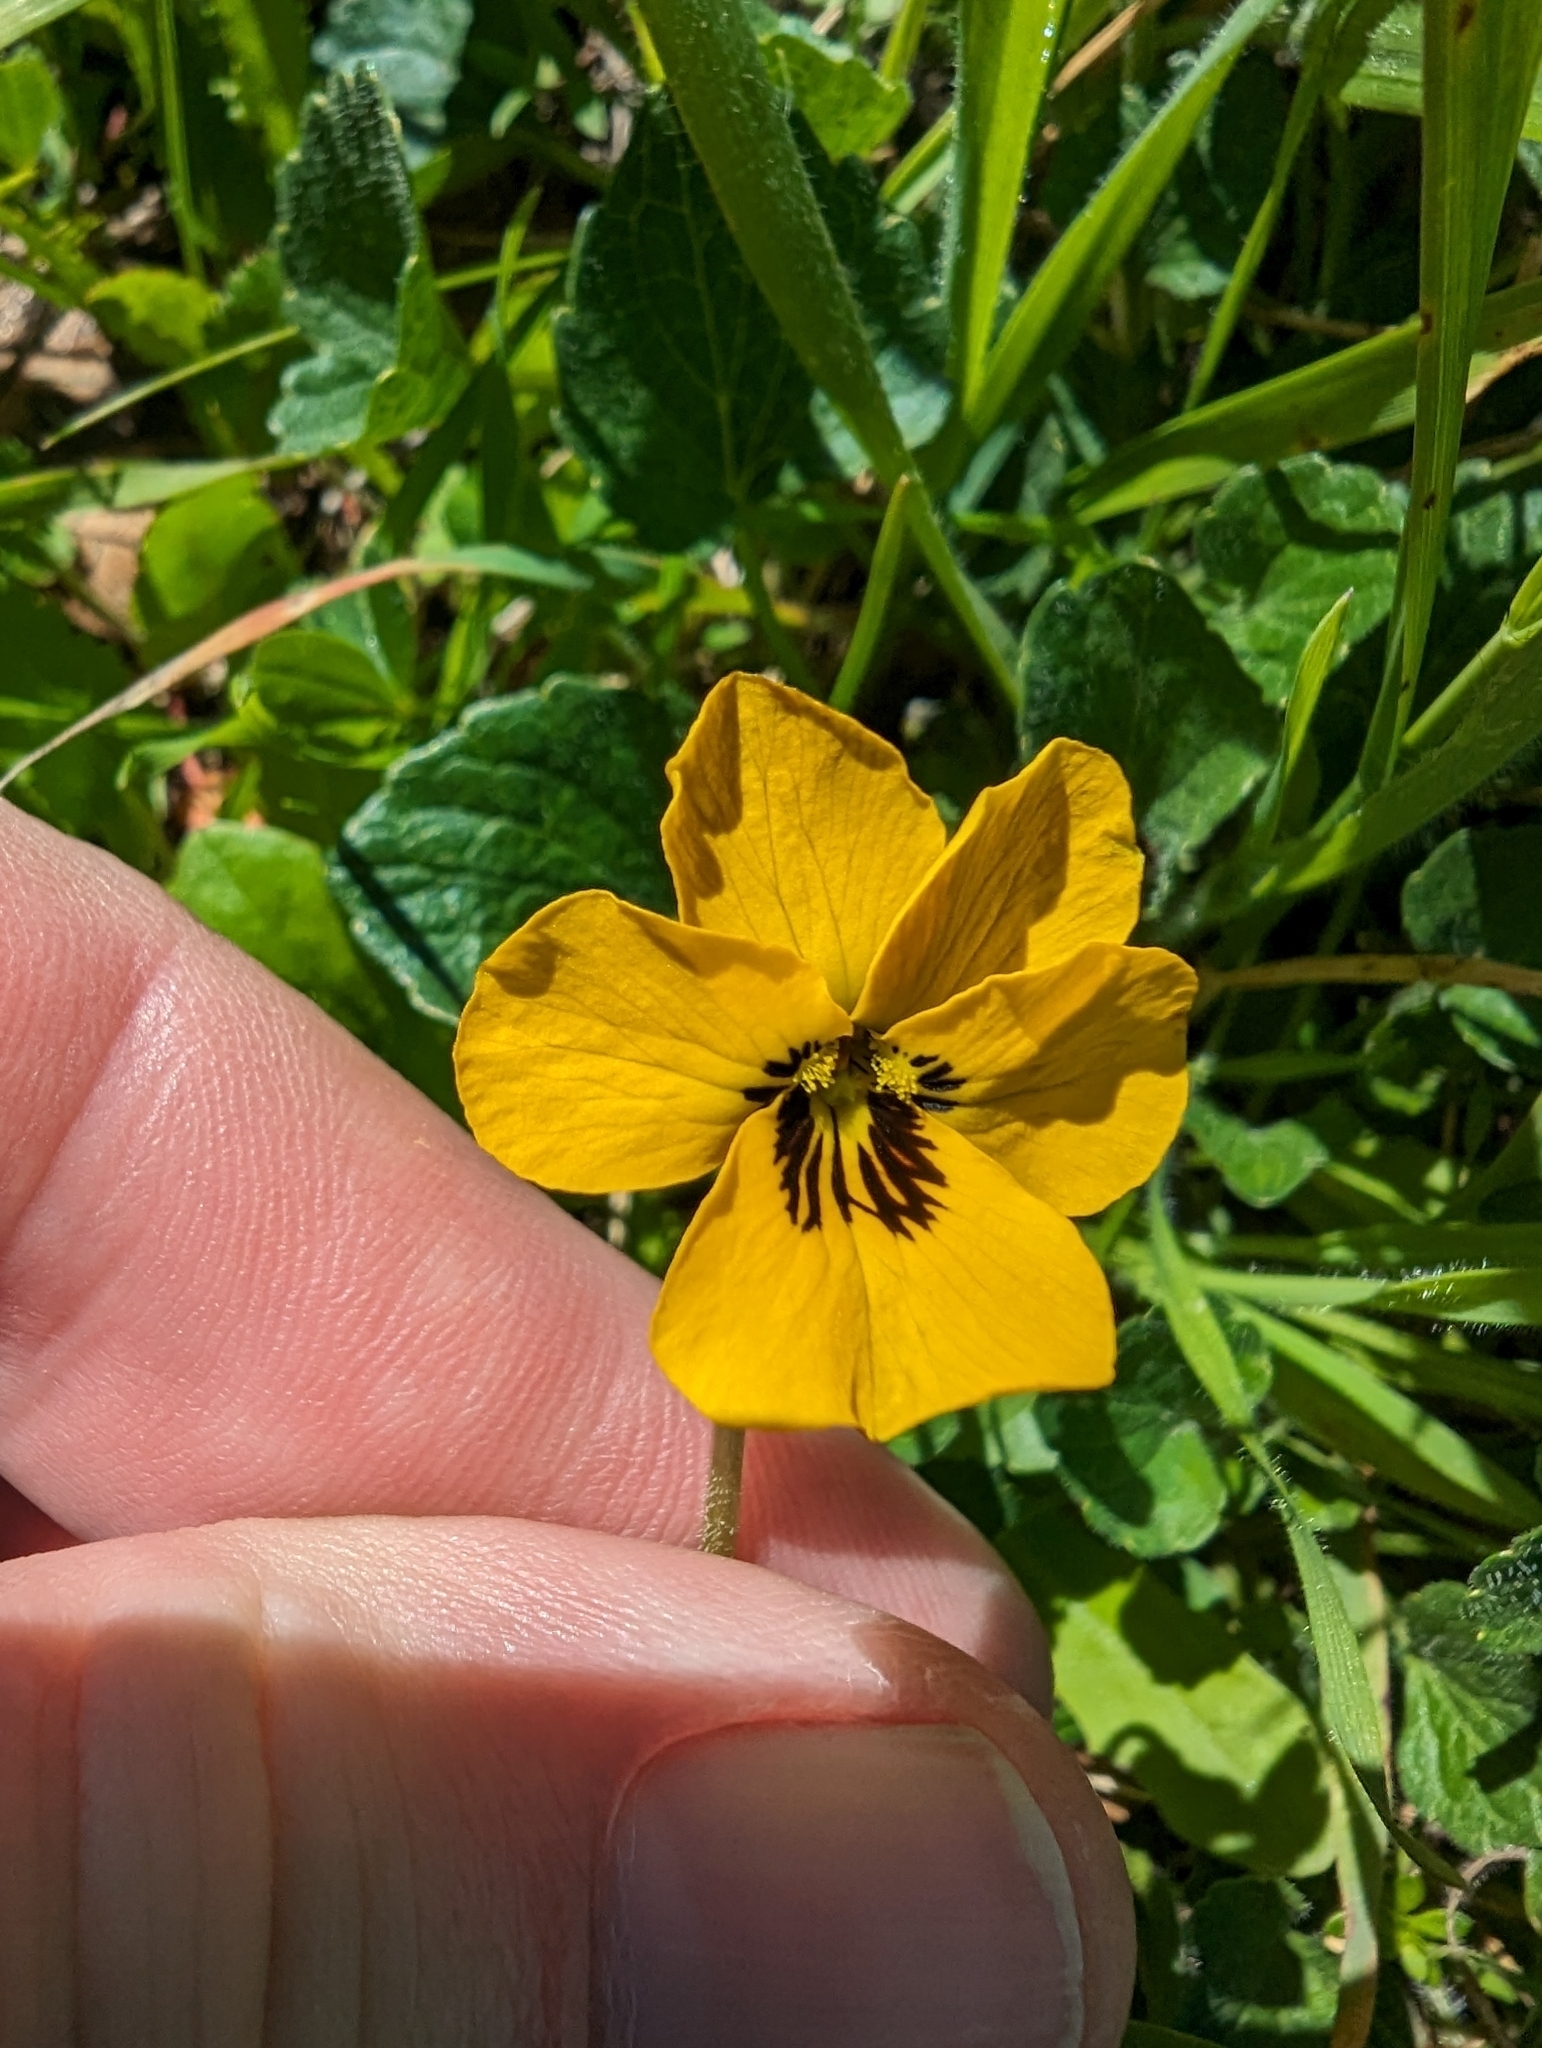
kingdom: Plantae
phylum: Tracheophyta
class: Magnoliopsida
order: Malpighiales
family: Violaceae
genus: Viola
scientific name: Viola pedunculata
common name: California golden violet
